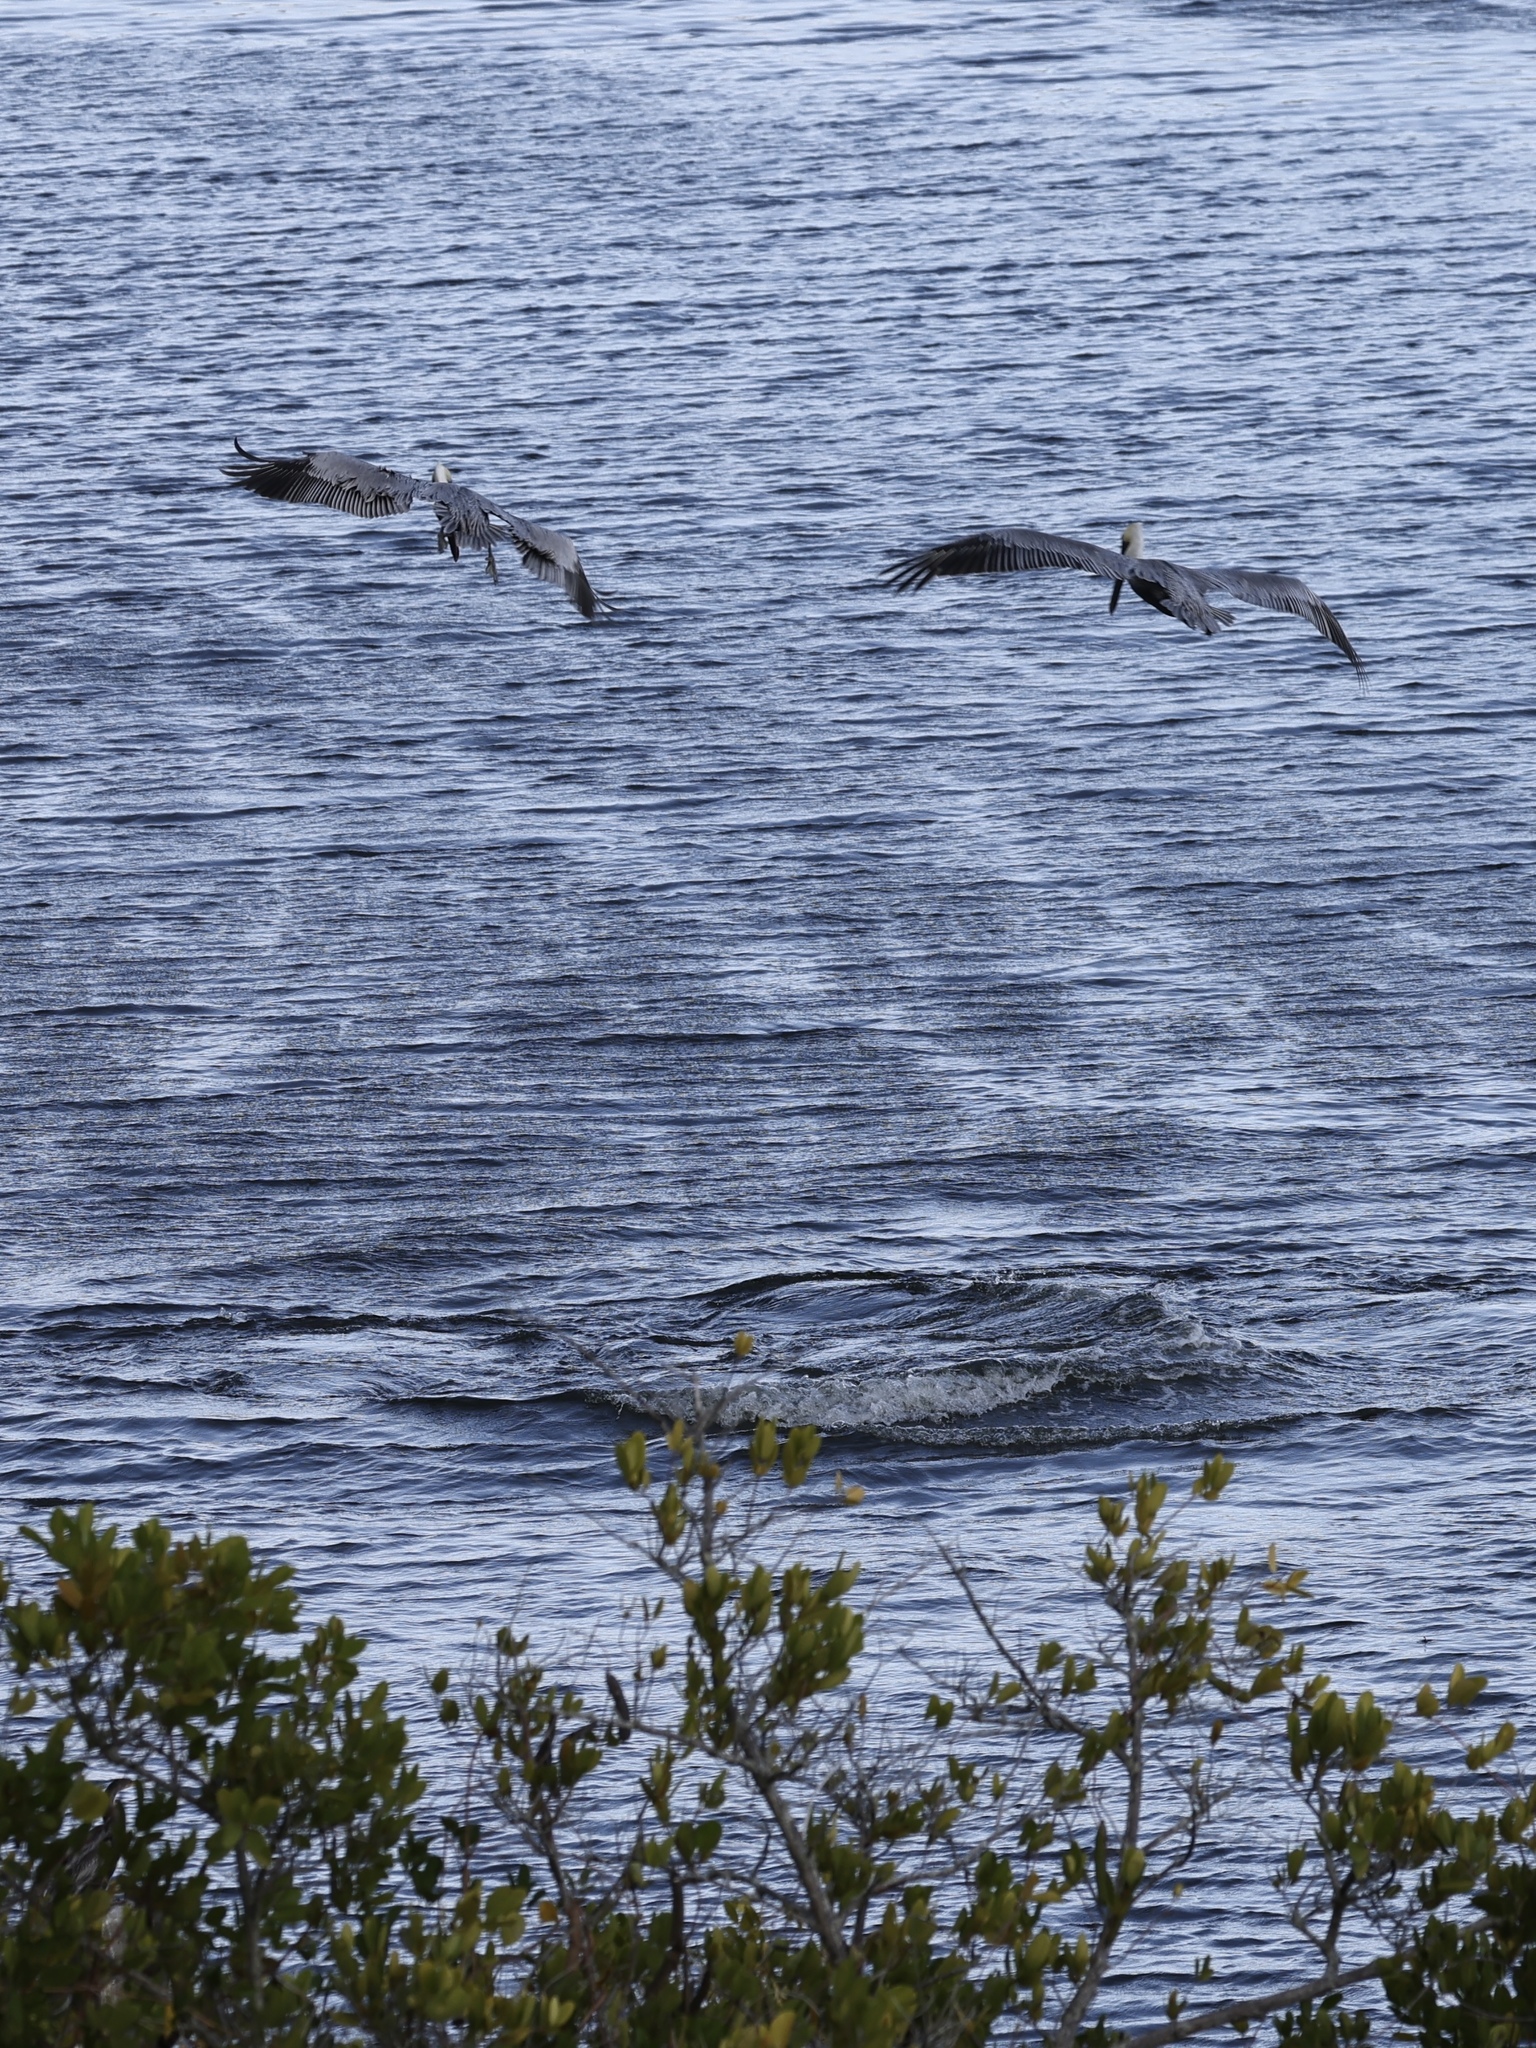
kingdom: Animalia
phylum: Chordata
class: Aves
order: Pelecaniformes
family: Pelecanidae
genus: Pelecanus
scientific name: Pelecanus occidentalis
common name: Brown pelican
